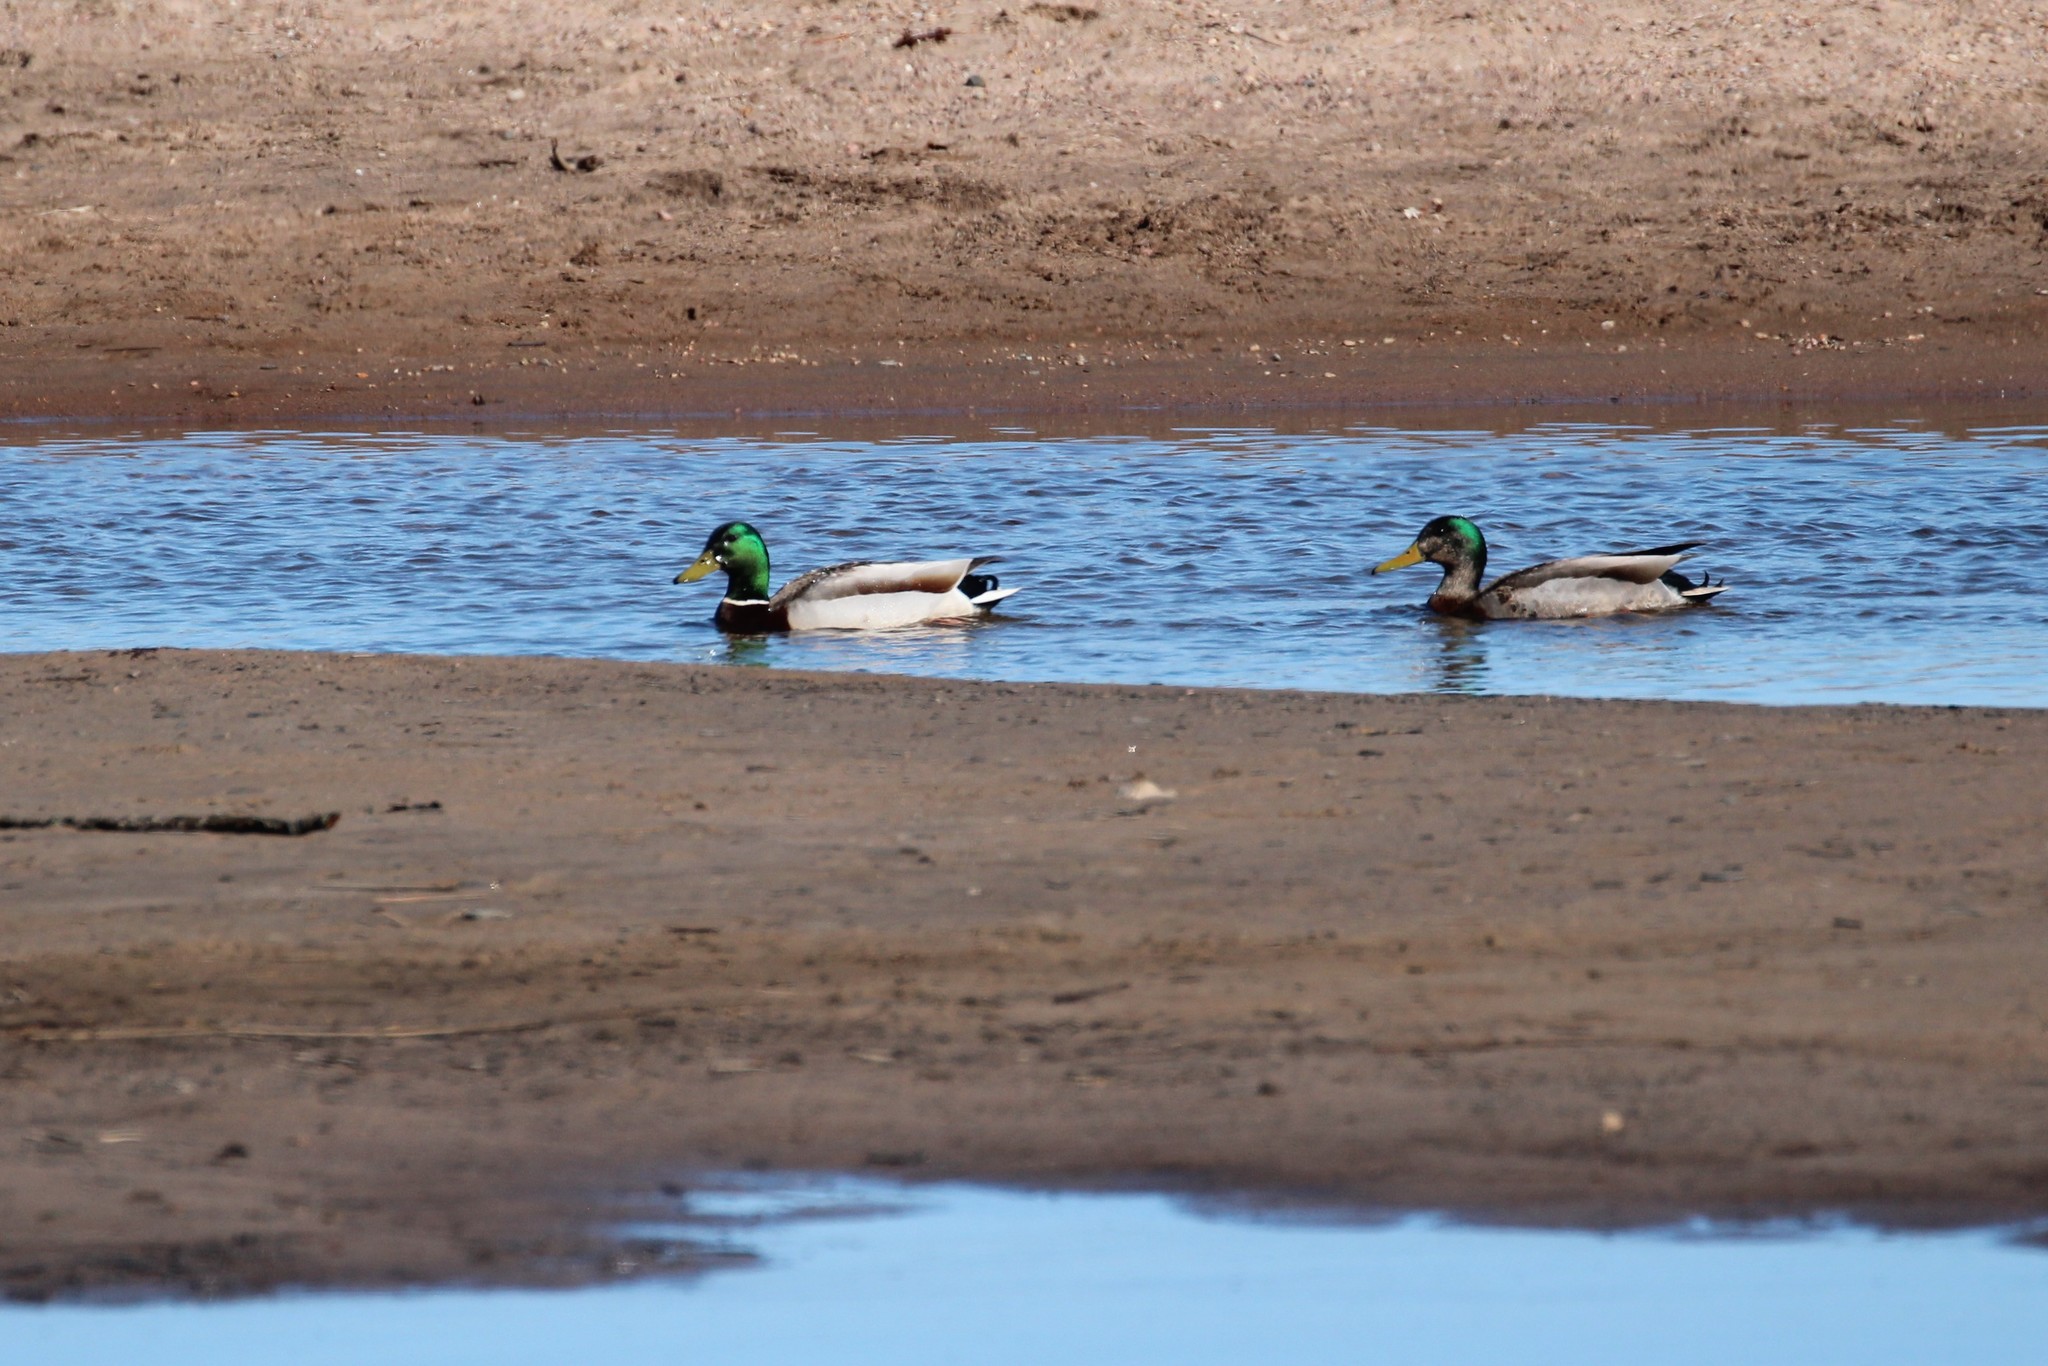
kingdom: Animalia
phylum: Chordata
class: Aves
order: Anseriformes
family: Anatidae
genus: Anas
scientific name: Anas platyrhynchos
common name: Mallard
